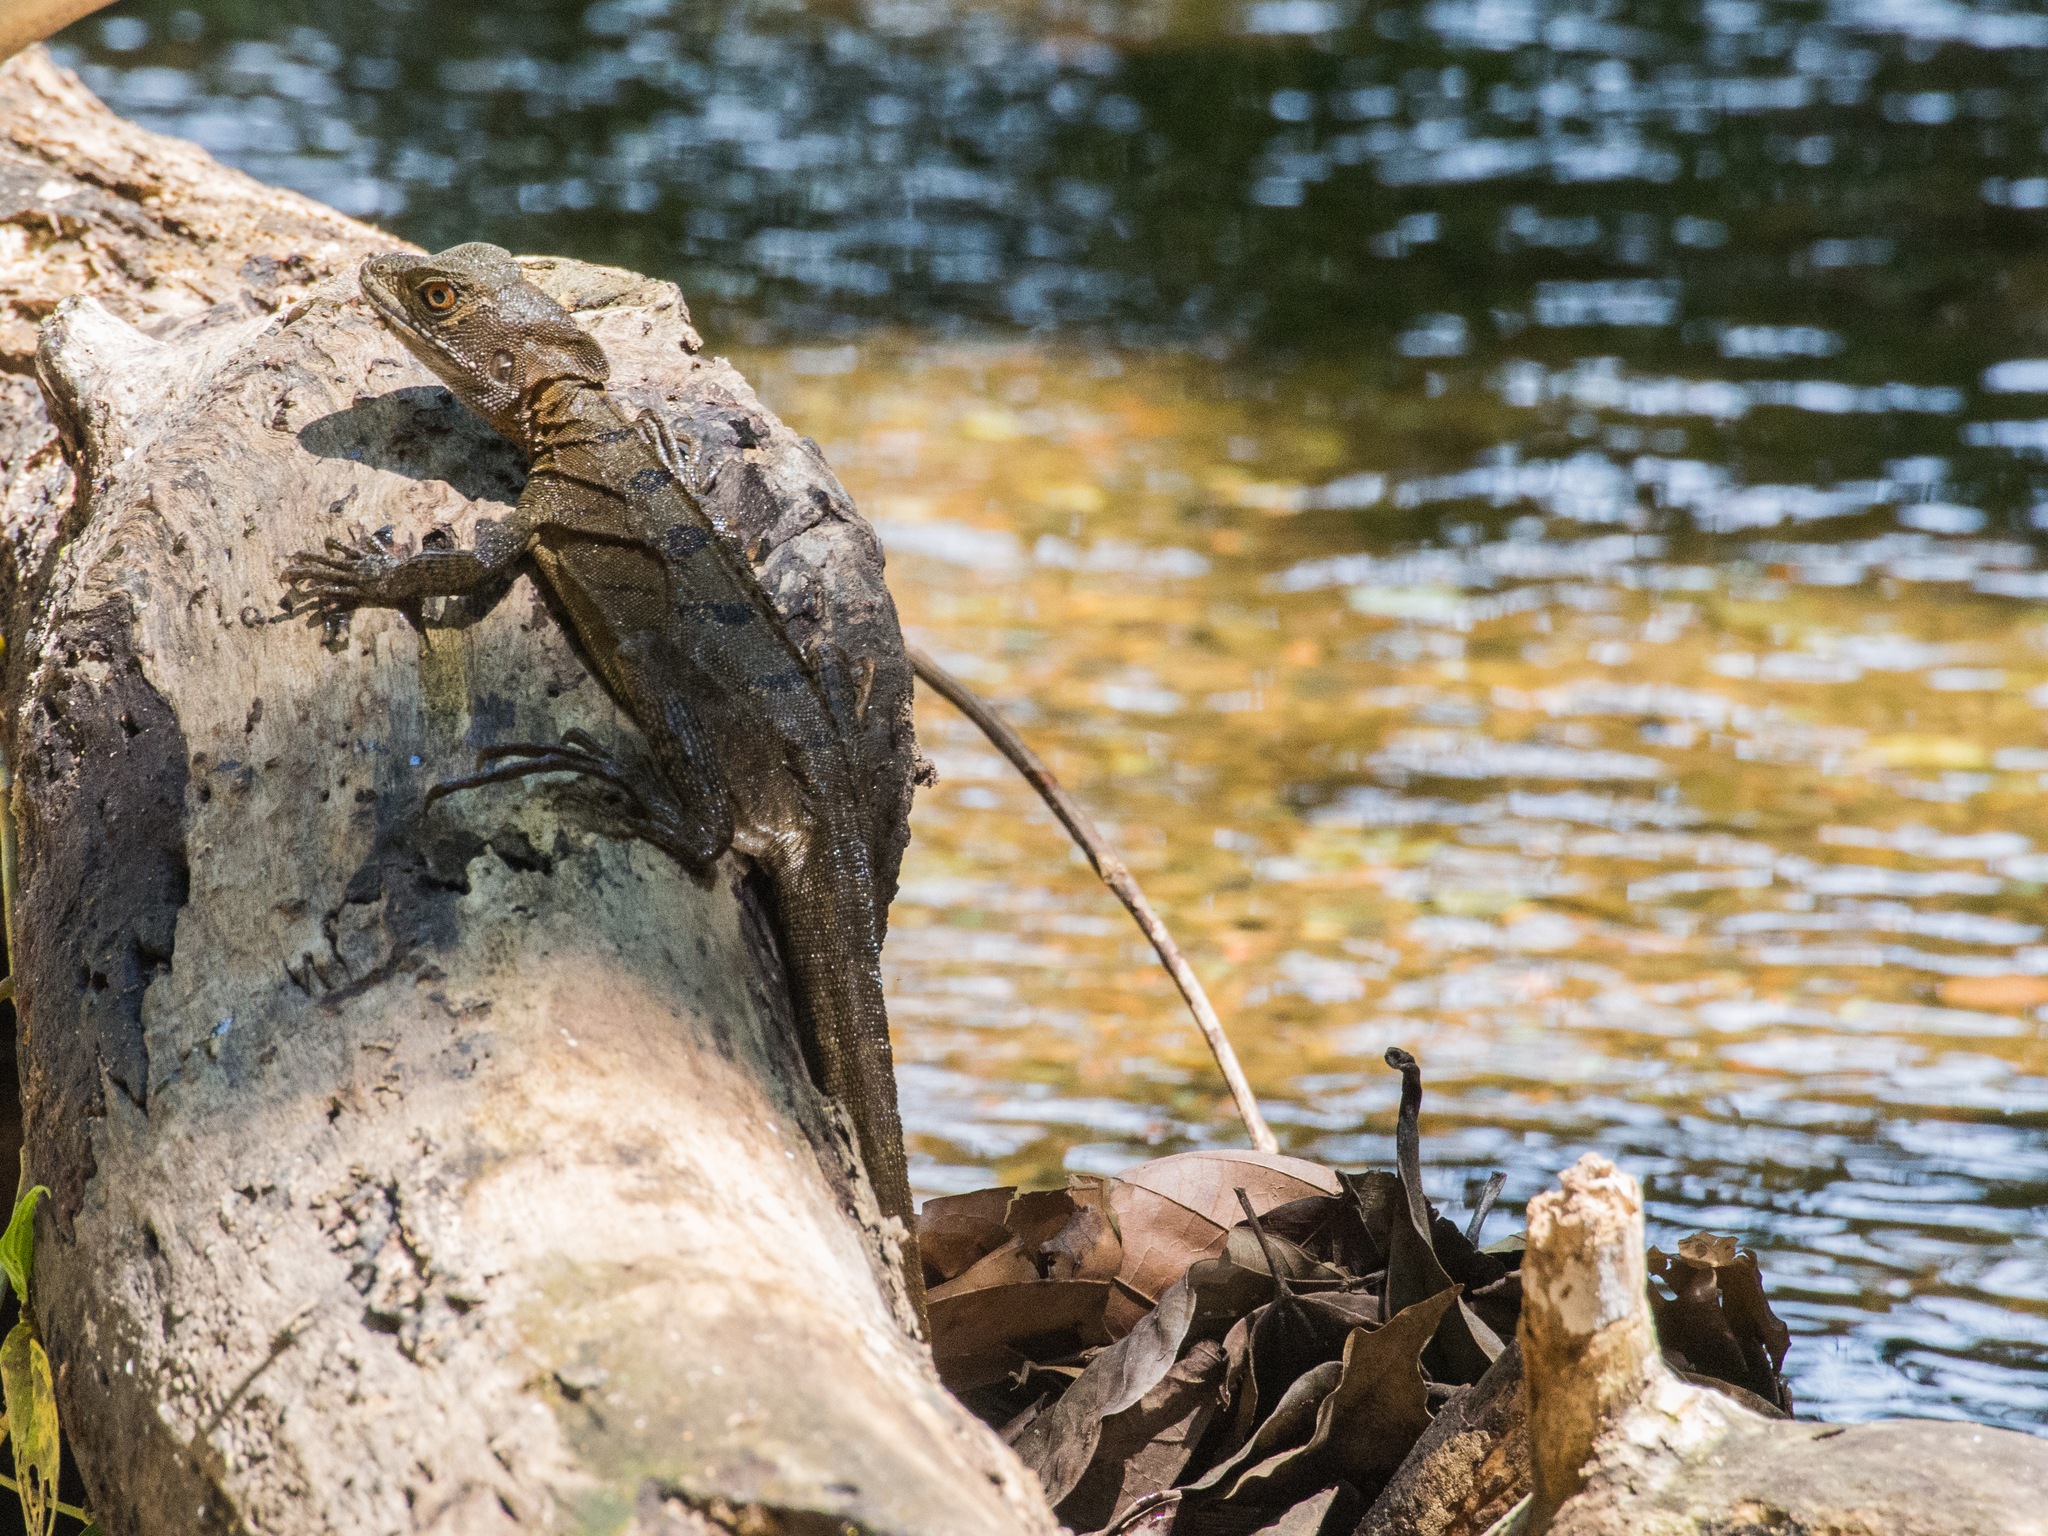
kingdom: Animalia
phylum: Chordata
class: Squamata
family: Corytophanidae
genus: Basiliscus
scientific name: Basiliscus basiliscus
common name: Common basilisk
